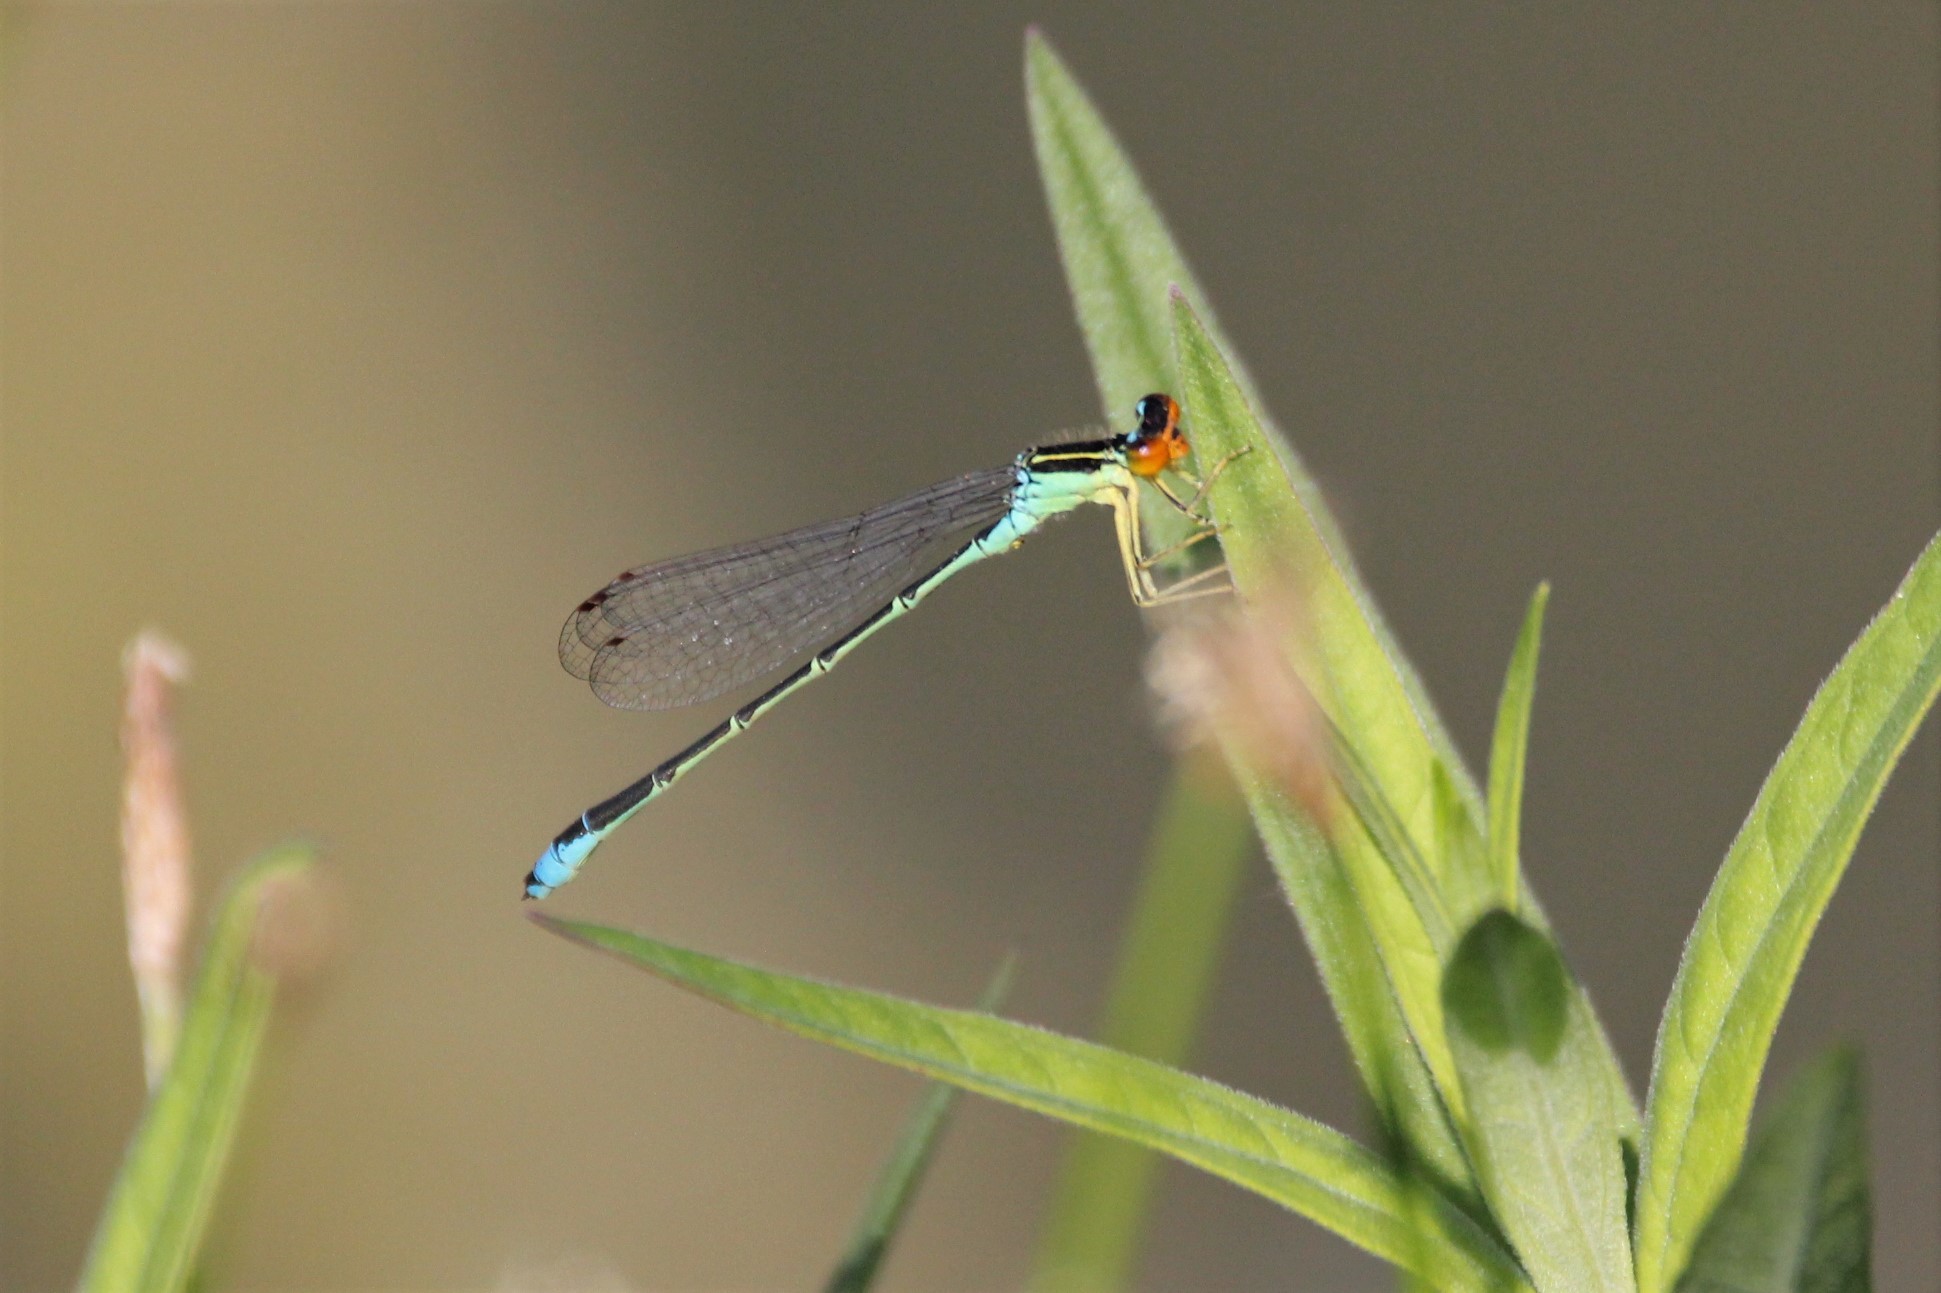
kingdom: Animalia
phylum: Arthropoda
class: Insecta
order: Odonata
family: Coenagrionidae
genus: Enallagma
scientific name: Enallagma antennatum
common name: Rainbow bluet
